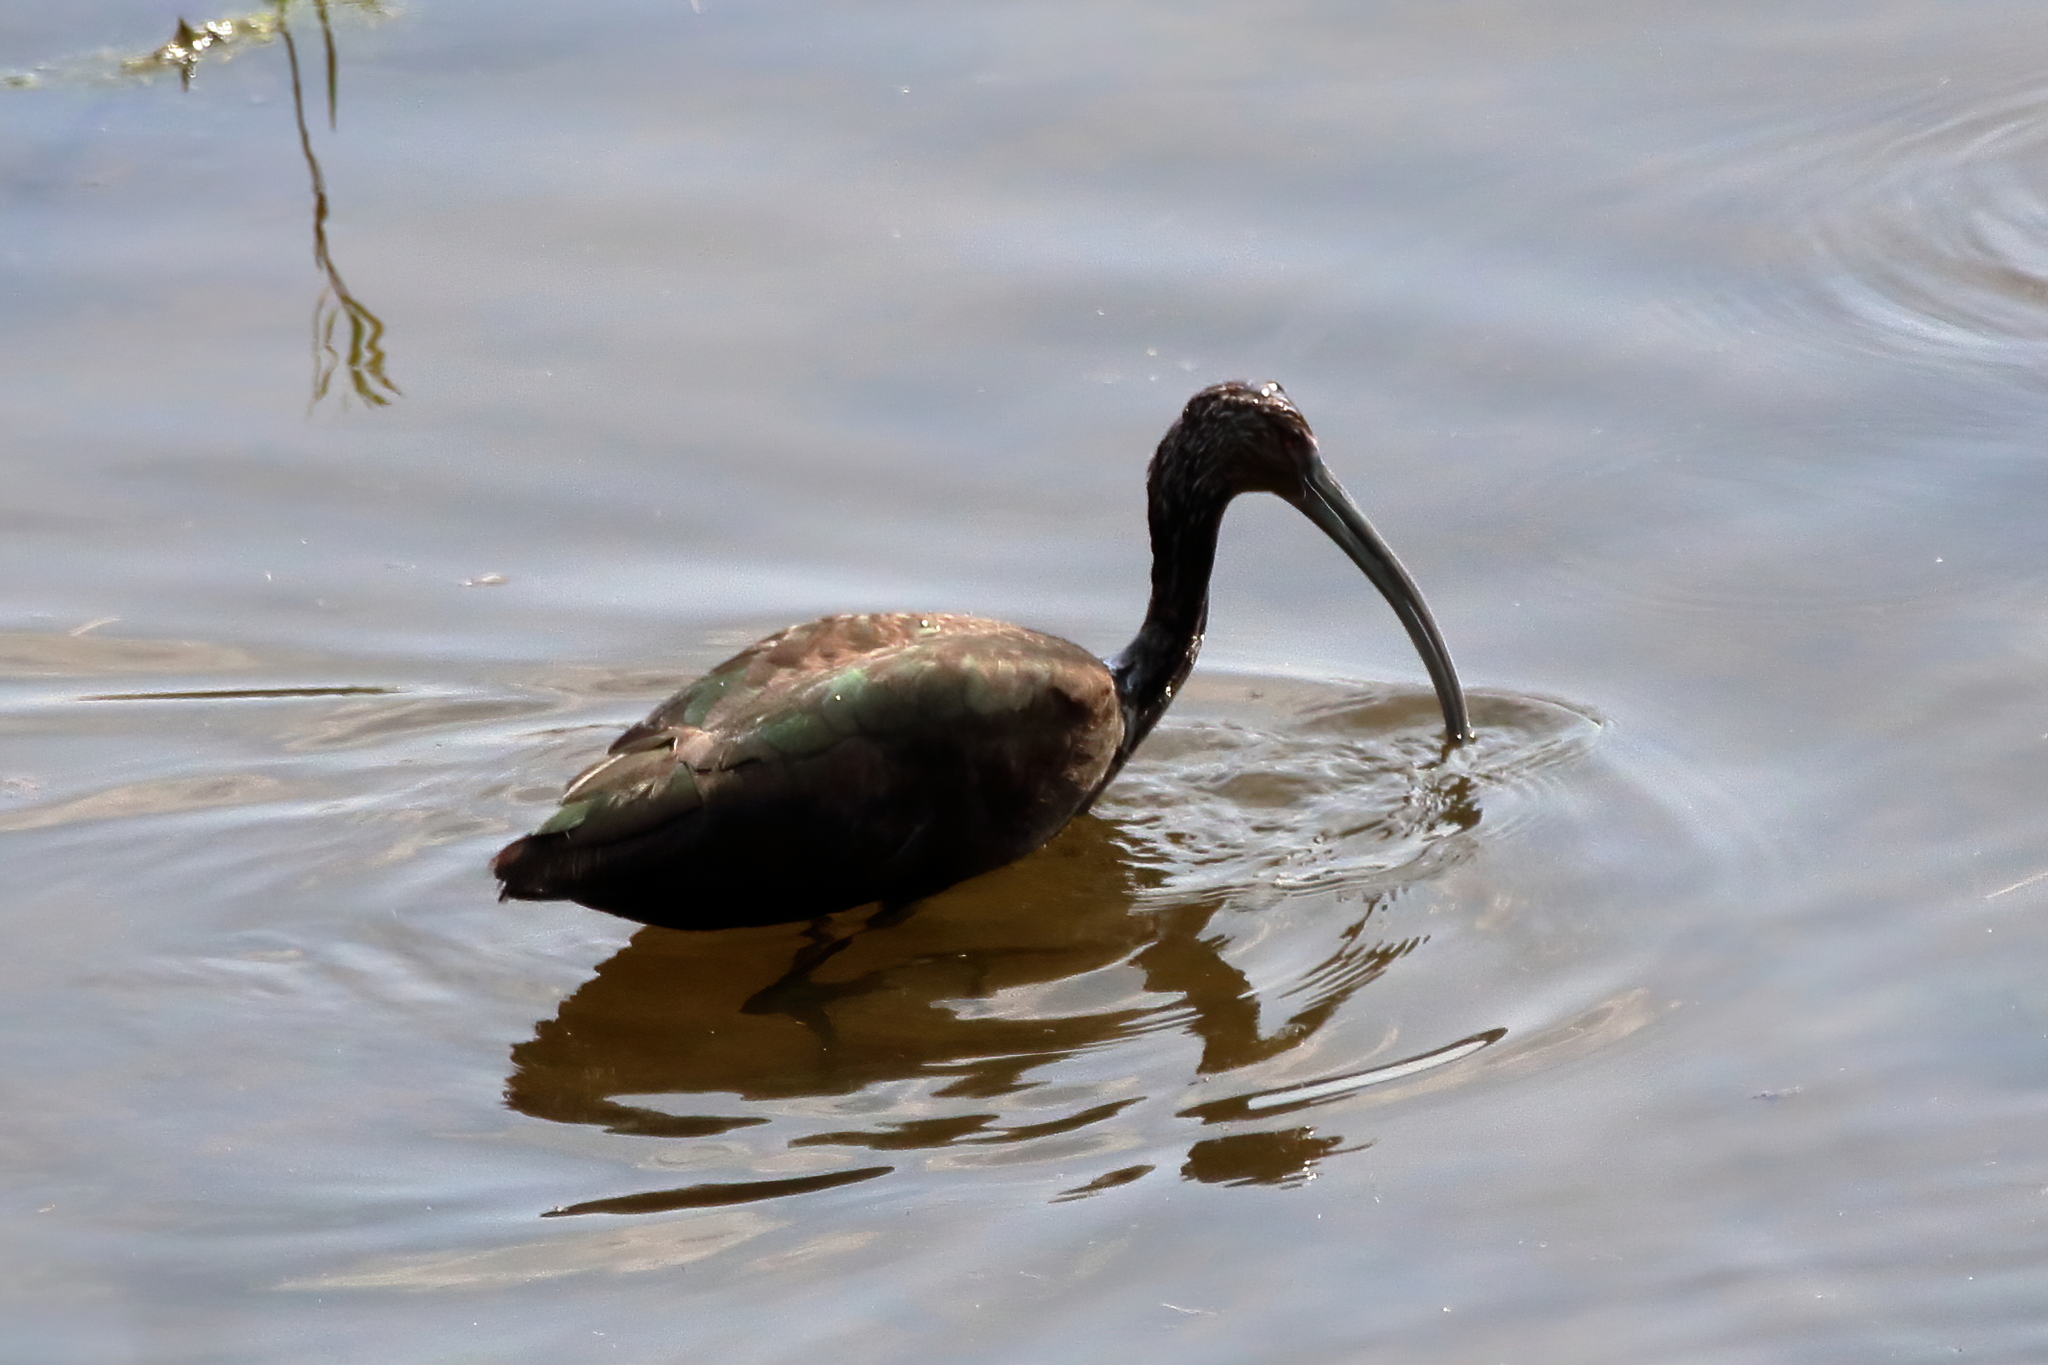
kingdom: Animalia
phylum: Chordata
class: Aves
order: Pelecaniformes
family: Threskiornithidae
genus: Plegadis
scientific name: Plegadis chihi
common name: White-faced ibis
